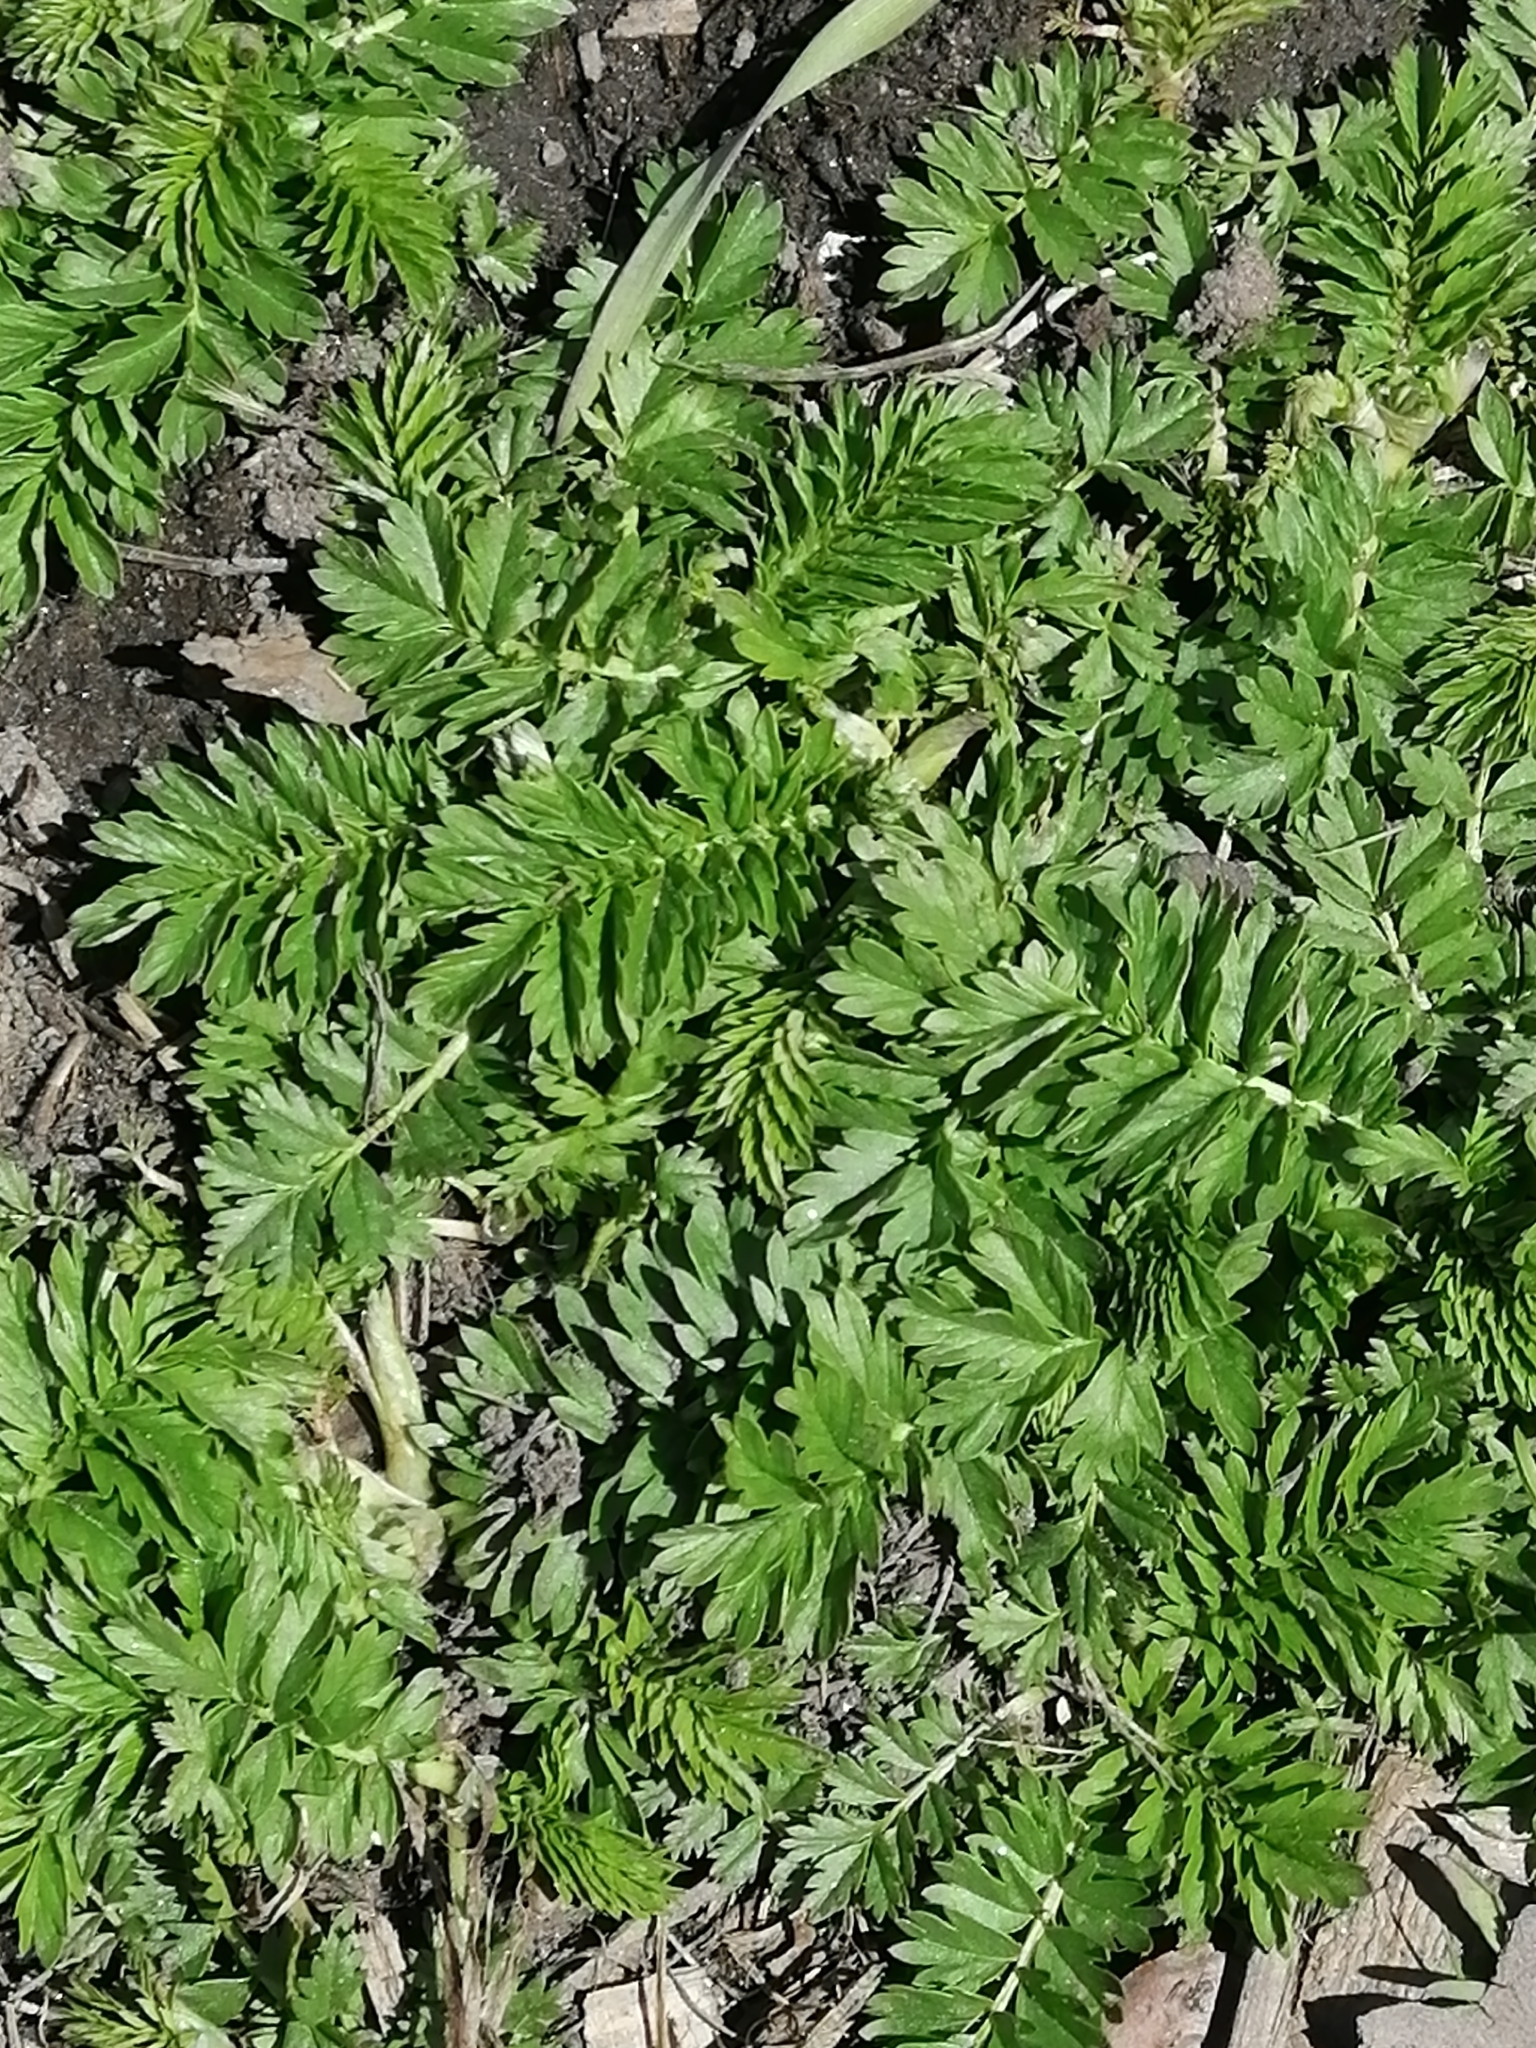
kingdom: Plantae
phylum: Tracheophyta
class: Magnoliopsida
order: Rosales
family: Rosaceae
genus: Potentilla
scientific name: Potentilla supina
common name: Prostrate cinquefoil
